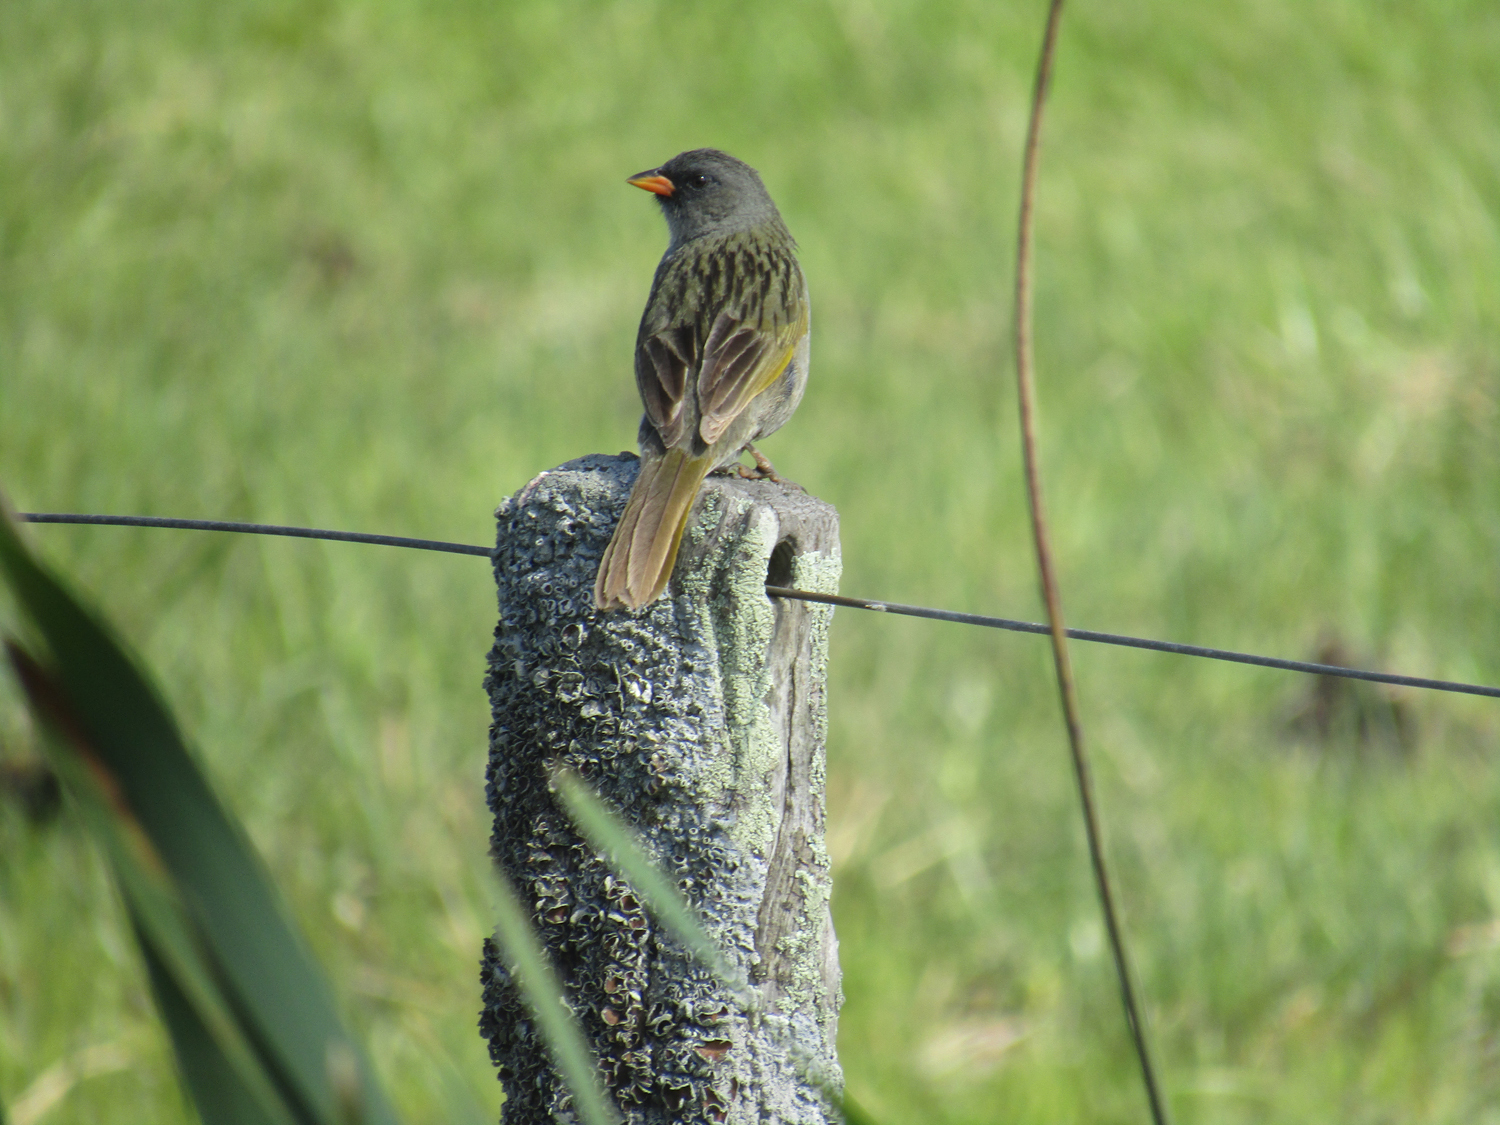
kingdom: Animalia
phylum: Chordata
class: Aves
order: Passeriformes
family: Thraupidae
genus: Embernagra
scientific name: Embernagra platensis
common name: Pampa finch
